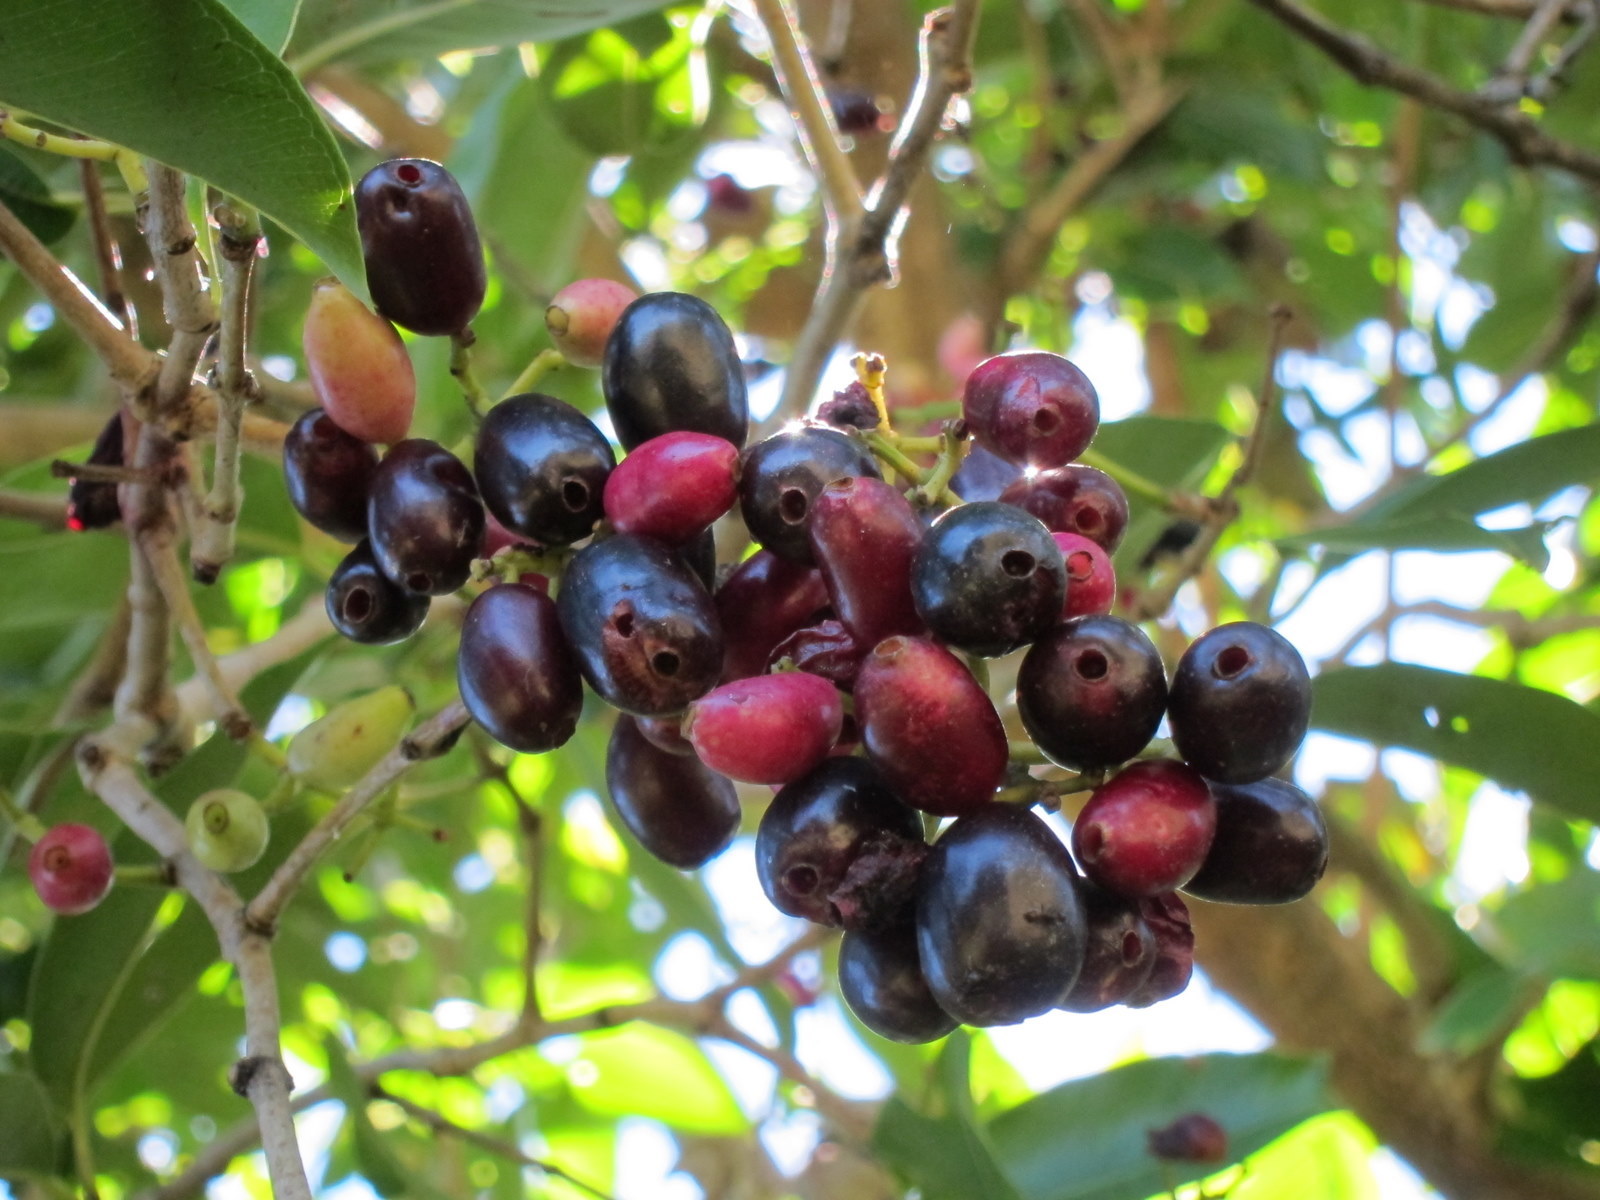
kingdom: Plantae
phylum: Tracheophyta
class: Magnoliopsida
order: Myrtales
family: Myrtaceae
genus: Syzygium
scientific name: Syzygium cumini
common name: Java plum
